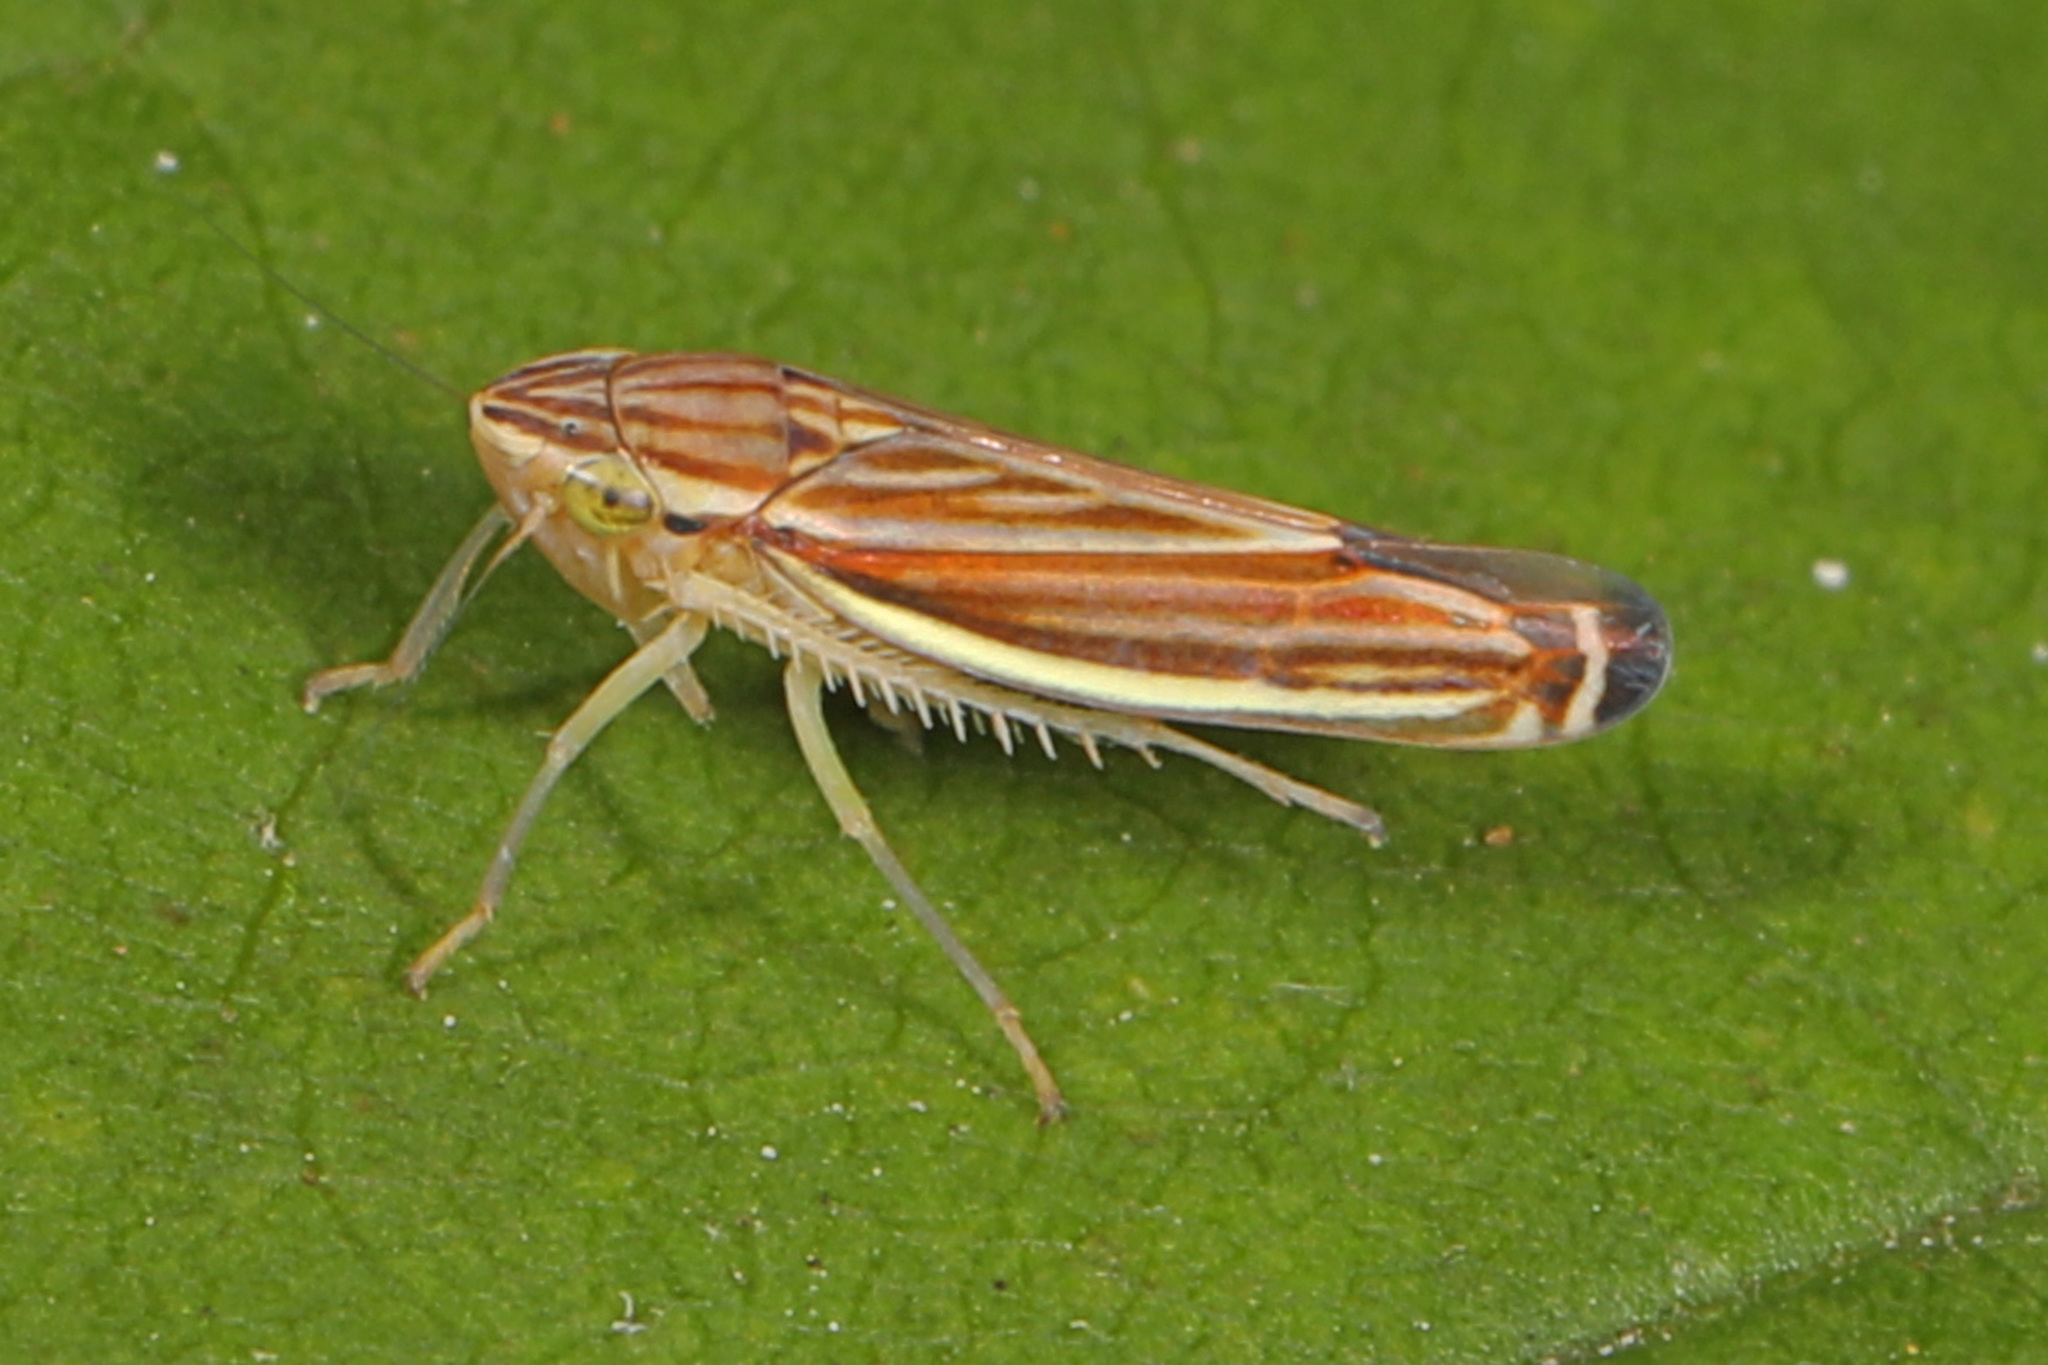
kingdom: Animalia
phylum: Arthropoda
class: Insecta
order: Hemiptera
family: Cicadellidae
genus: Sibovia
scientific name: Sibovia occatoria
